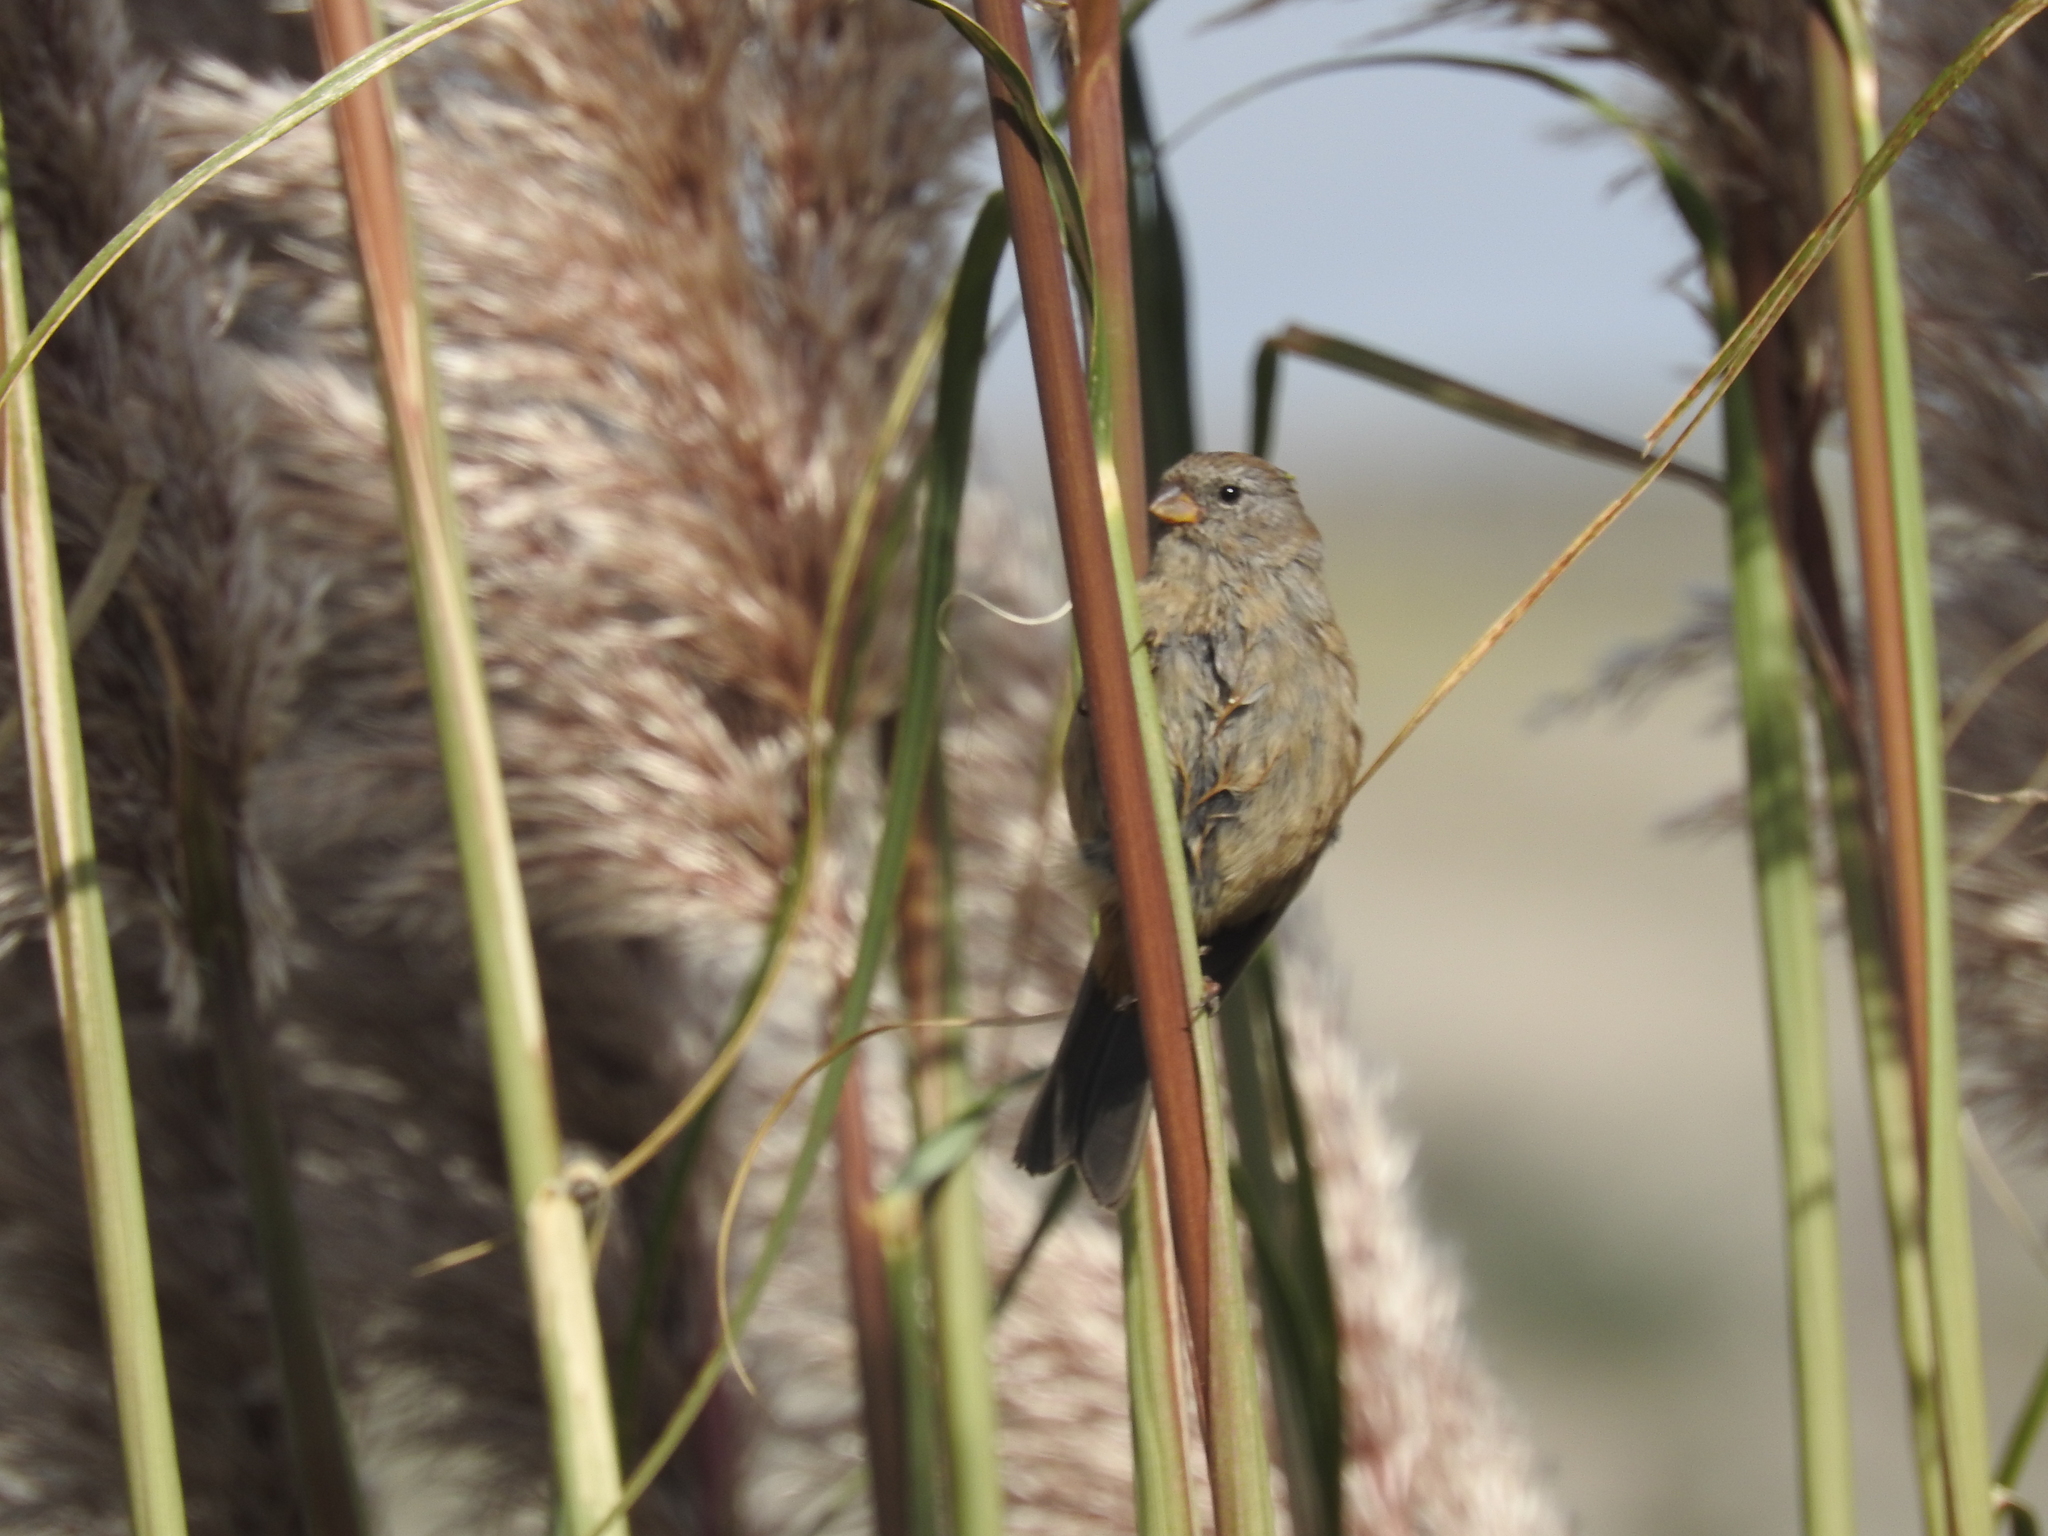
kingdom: Animalia
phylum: Chordata
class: Aves
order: Passeriformes
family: Thraupidae
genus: Catamenia
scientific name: Catamenia inornata
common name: Plain-colored seedeater
